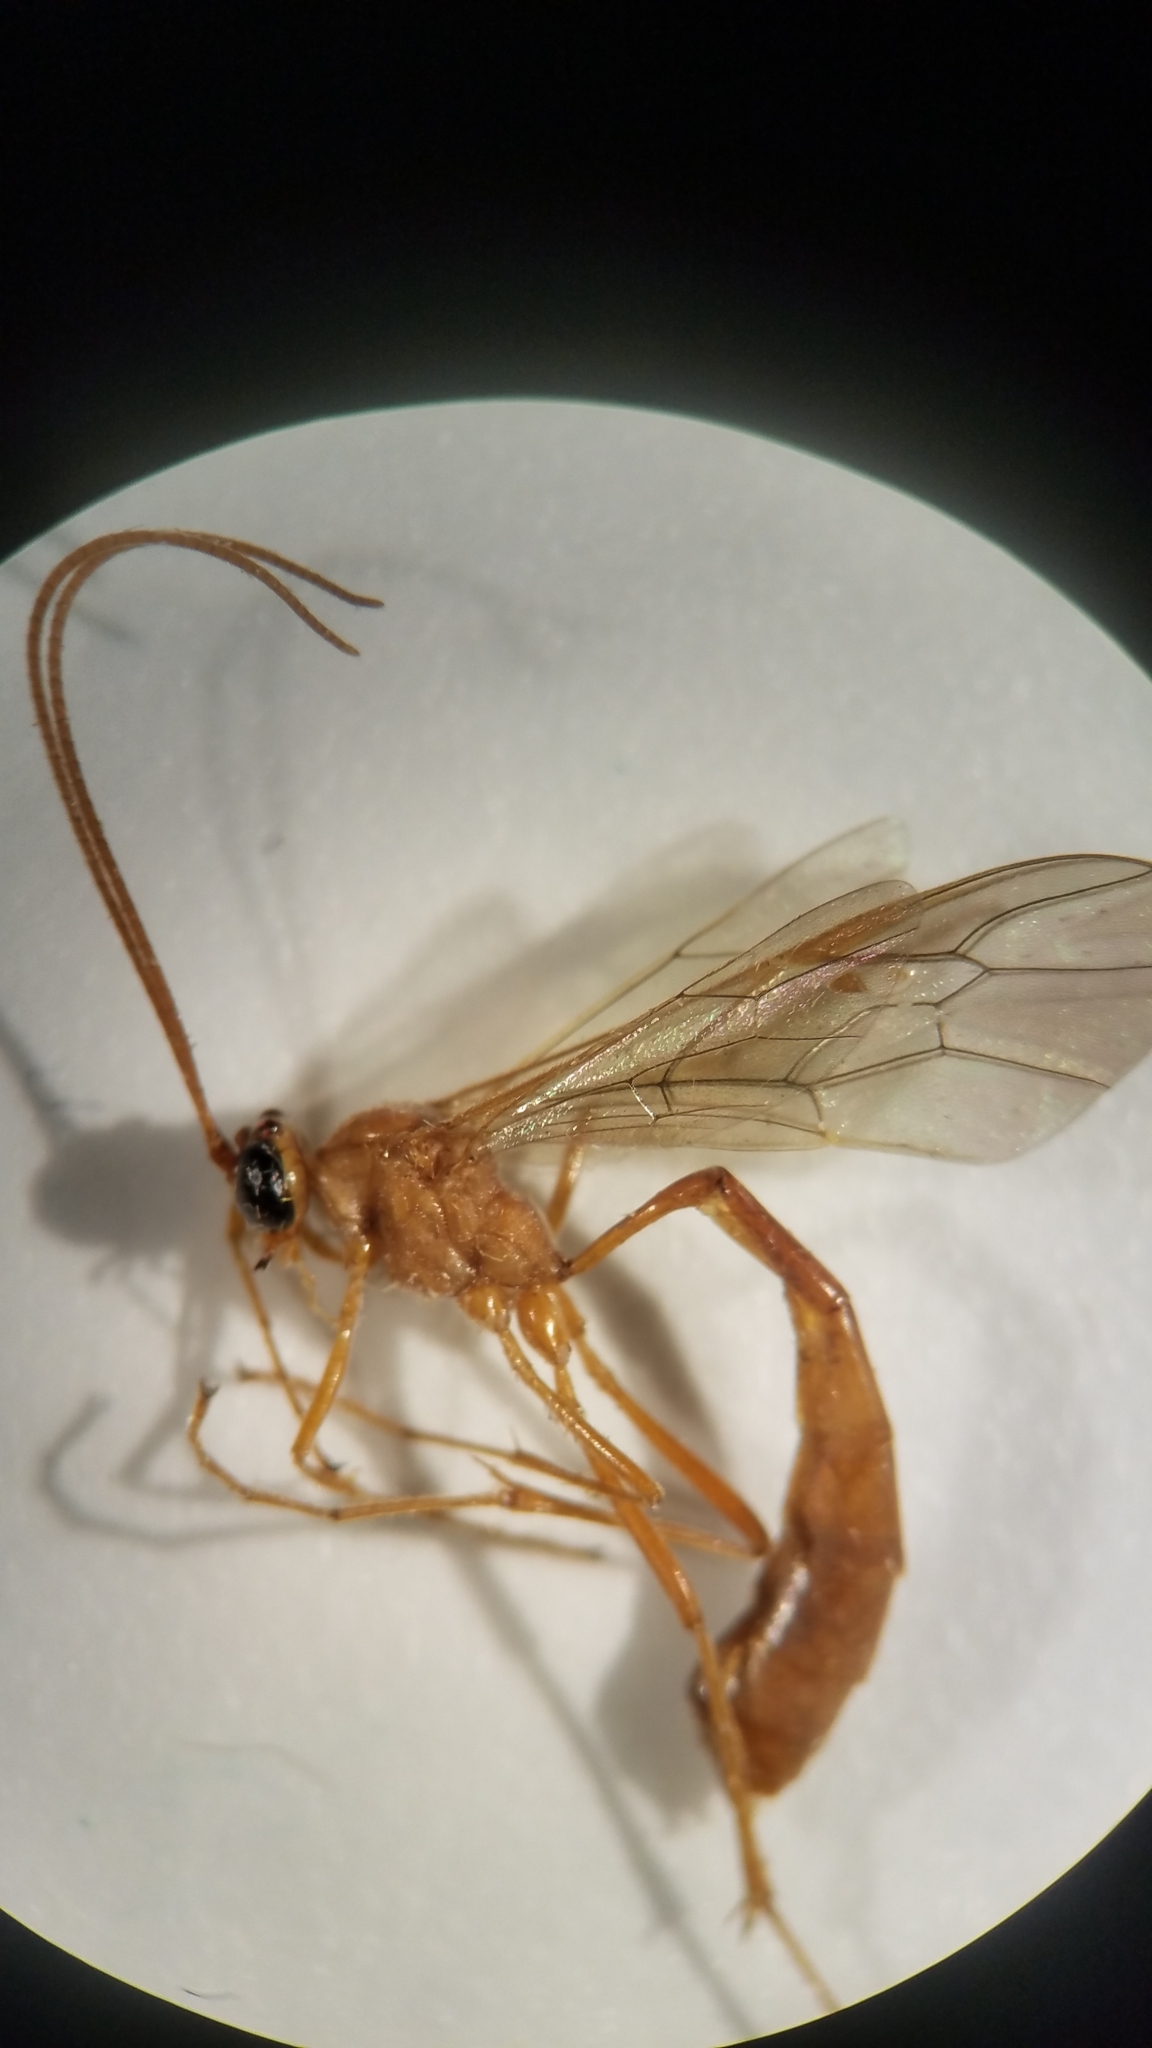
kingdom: Animalia
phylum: Arthropoda
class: Insecta
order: Hymenoptera
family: Ichneumonidae
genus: Enicospilus
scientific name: Enicospilus purgatus
